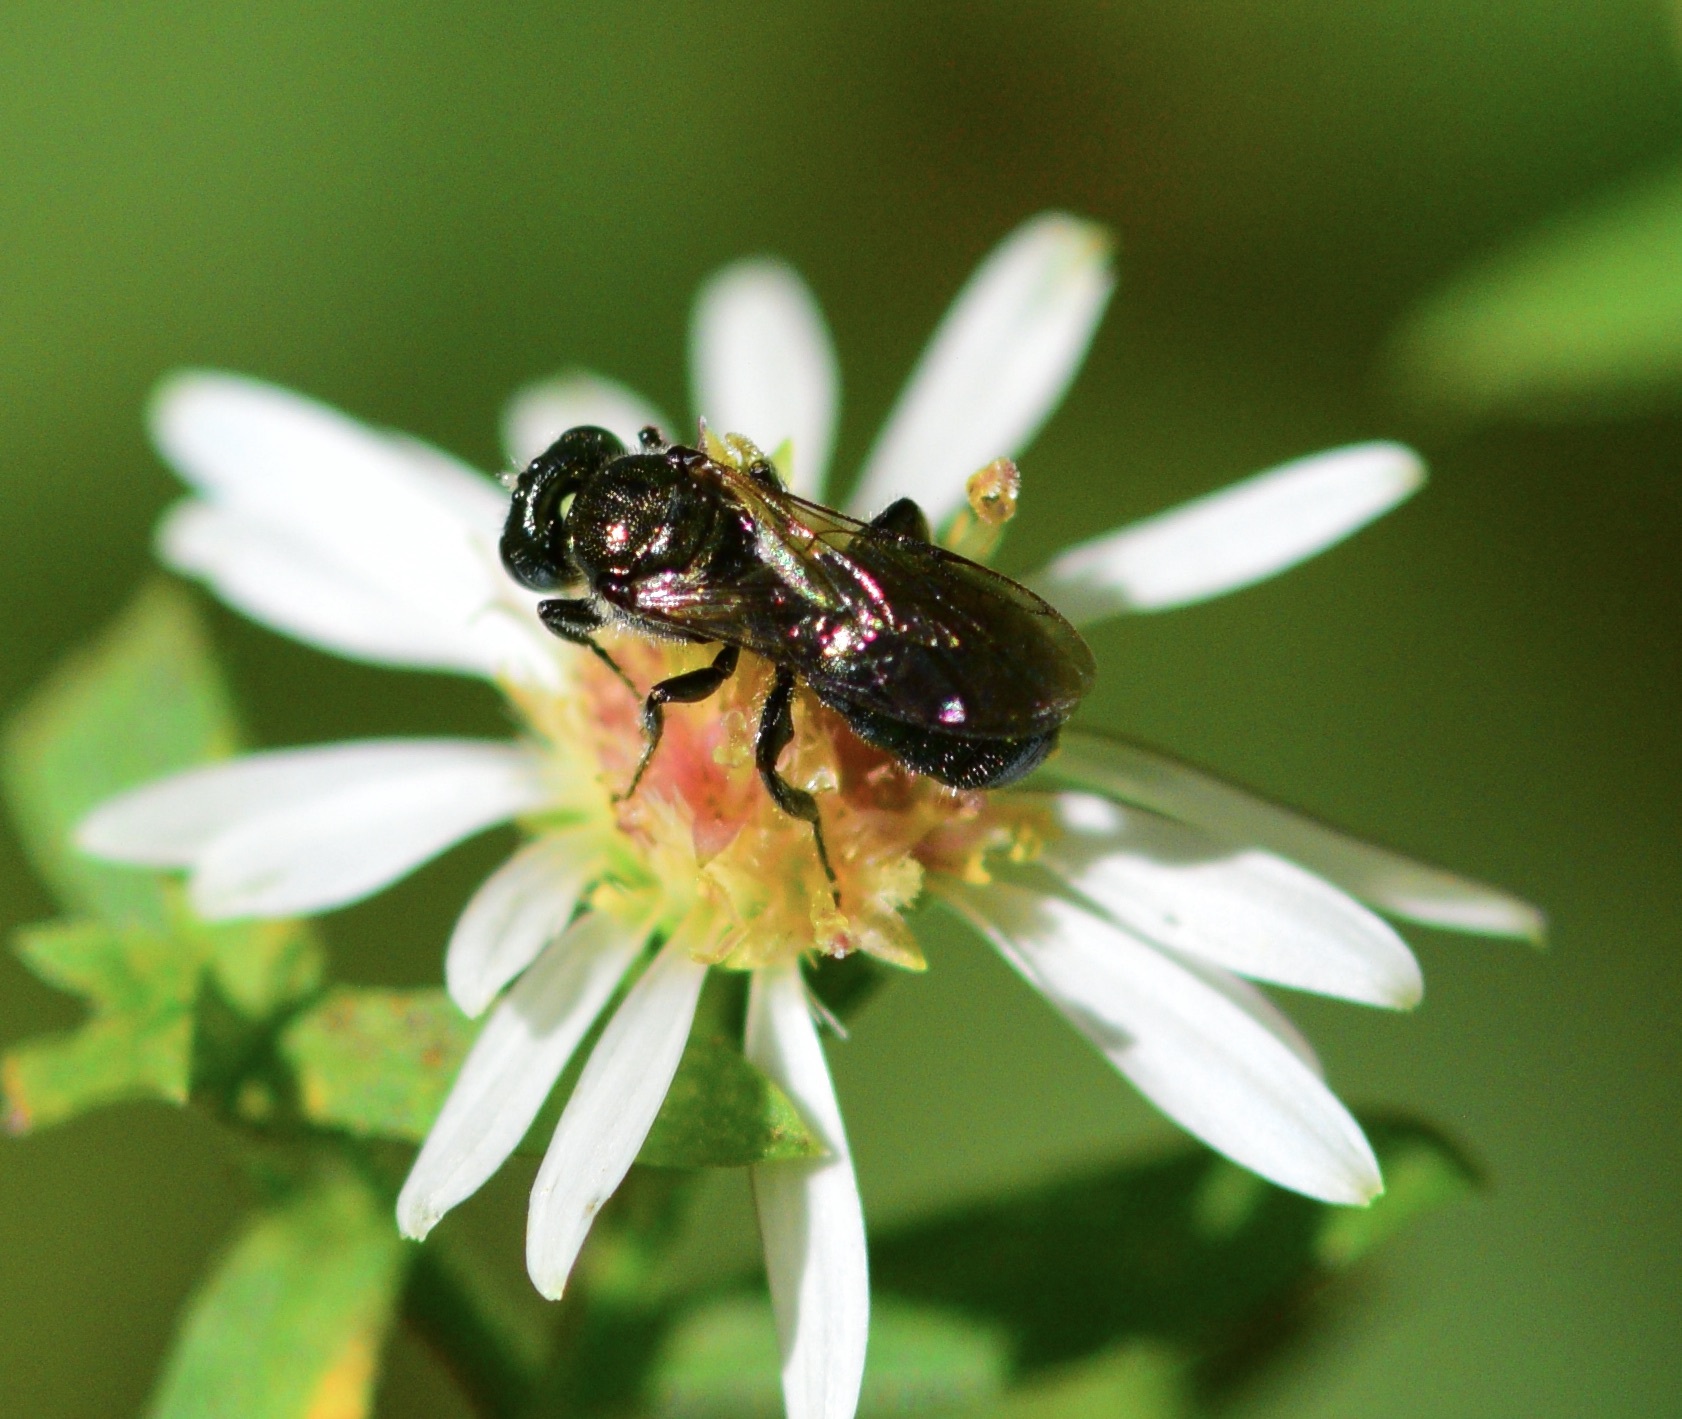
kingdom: Animalia
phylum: Arthropoda
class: Insecta
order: Hymenoptera
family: Apidae
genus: Ceratina
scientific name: Ceratina calcarata
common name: Spurred carpenter bee
